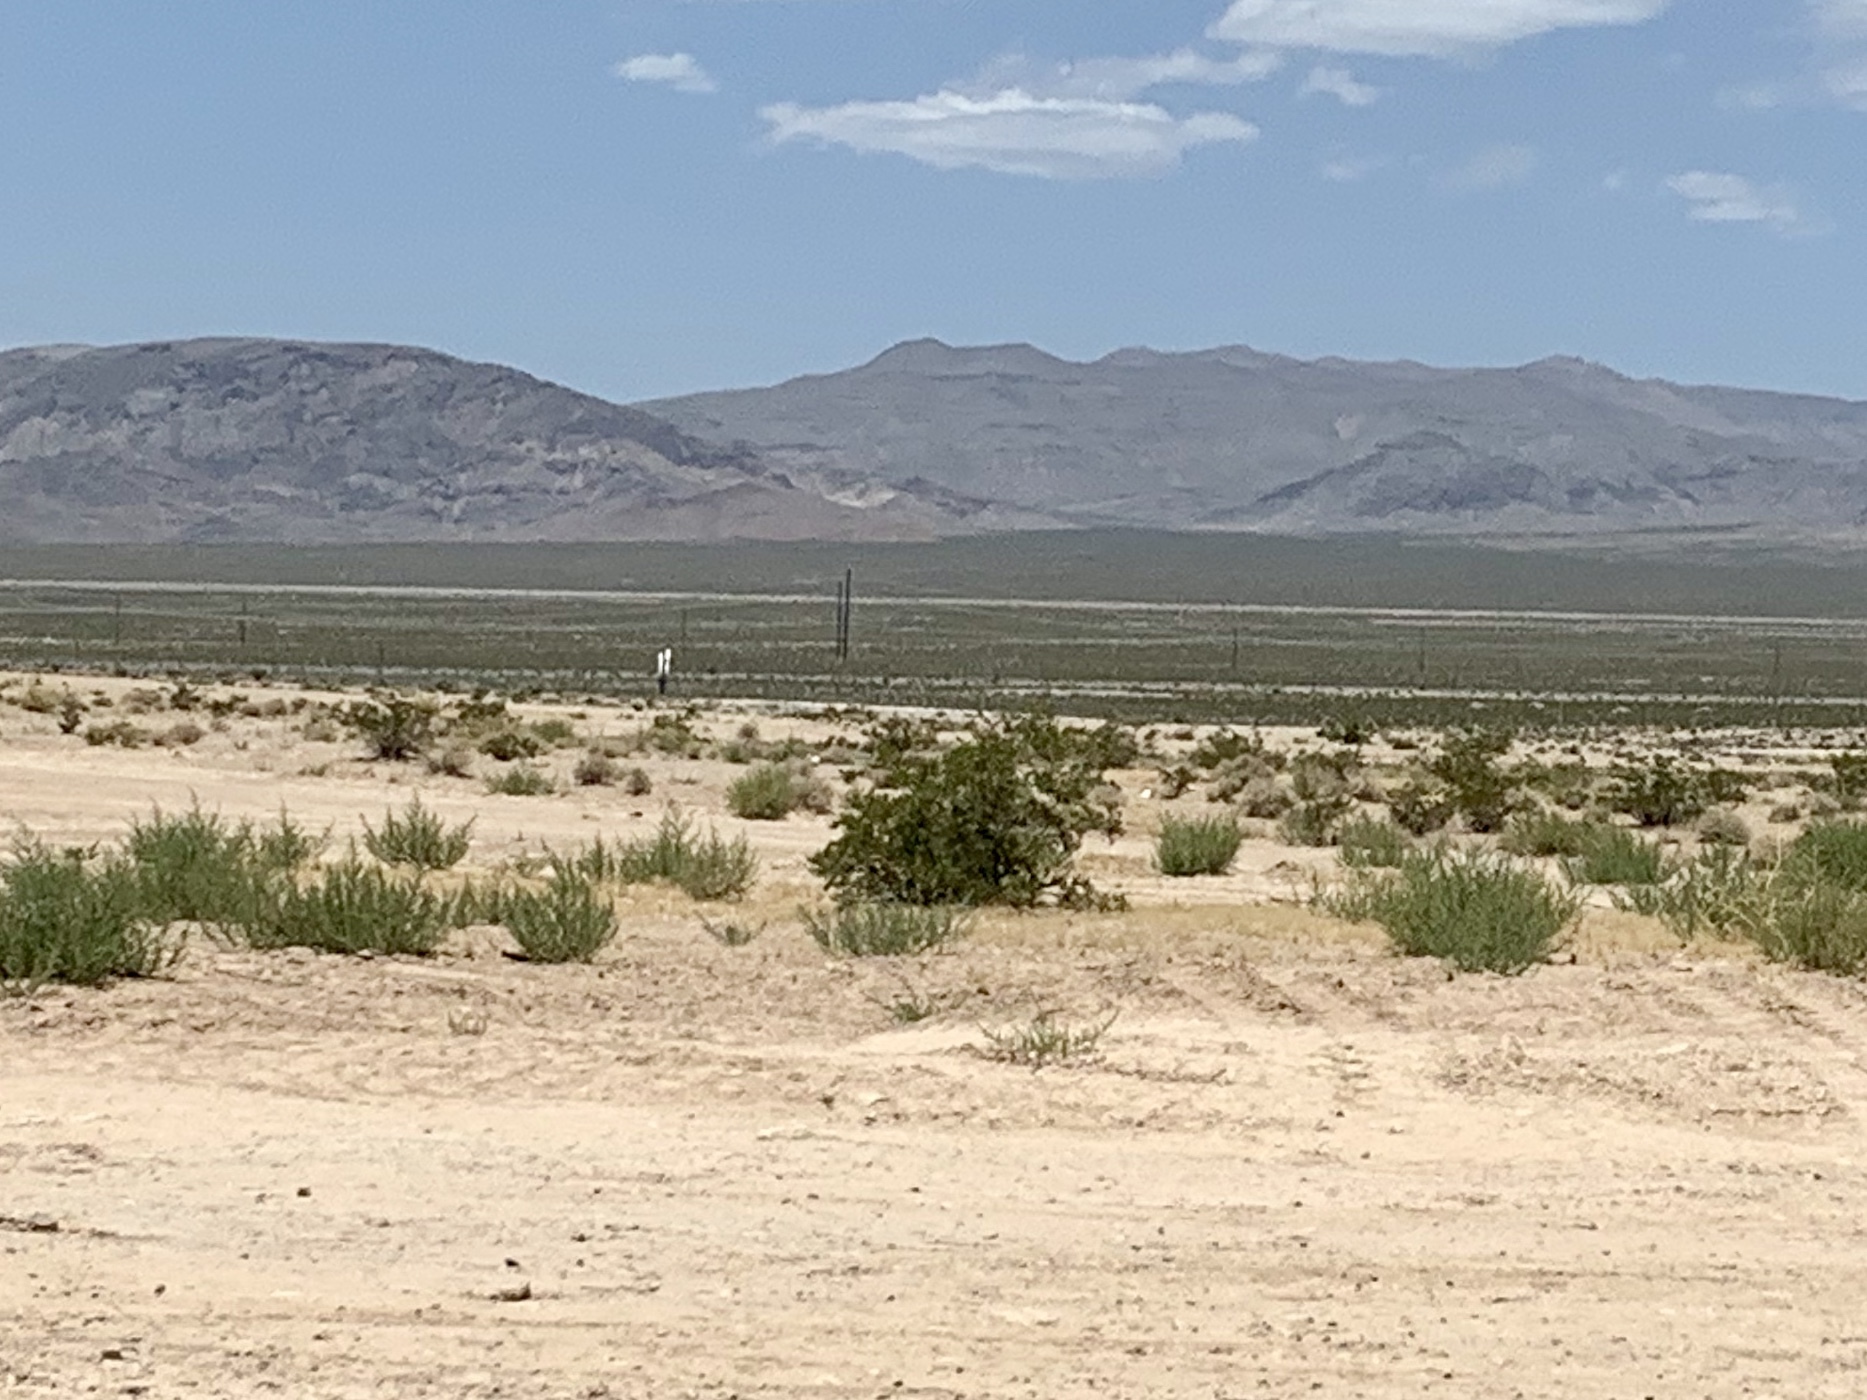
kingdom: Plantae
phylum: Tracheophyta
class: Magnoliopsida
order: Zygophyllales
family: Zygophyllaceae
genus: Larrea
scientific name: Larrea tridentata
